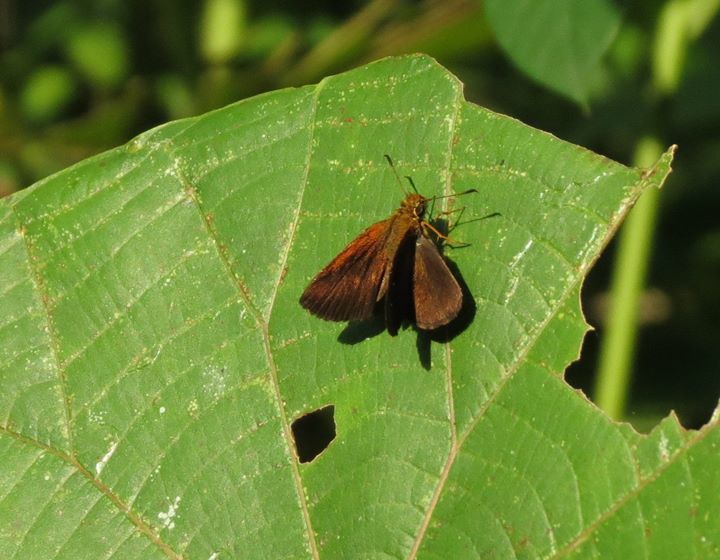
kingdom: Animalia
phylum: Arthropoda
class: Insecta
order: Lepidoptera
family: Hesperiidae
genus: Iambrix
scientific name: Iambrix salsala
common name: Chestnut bob
